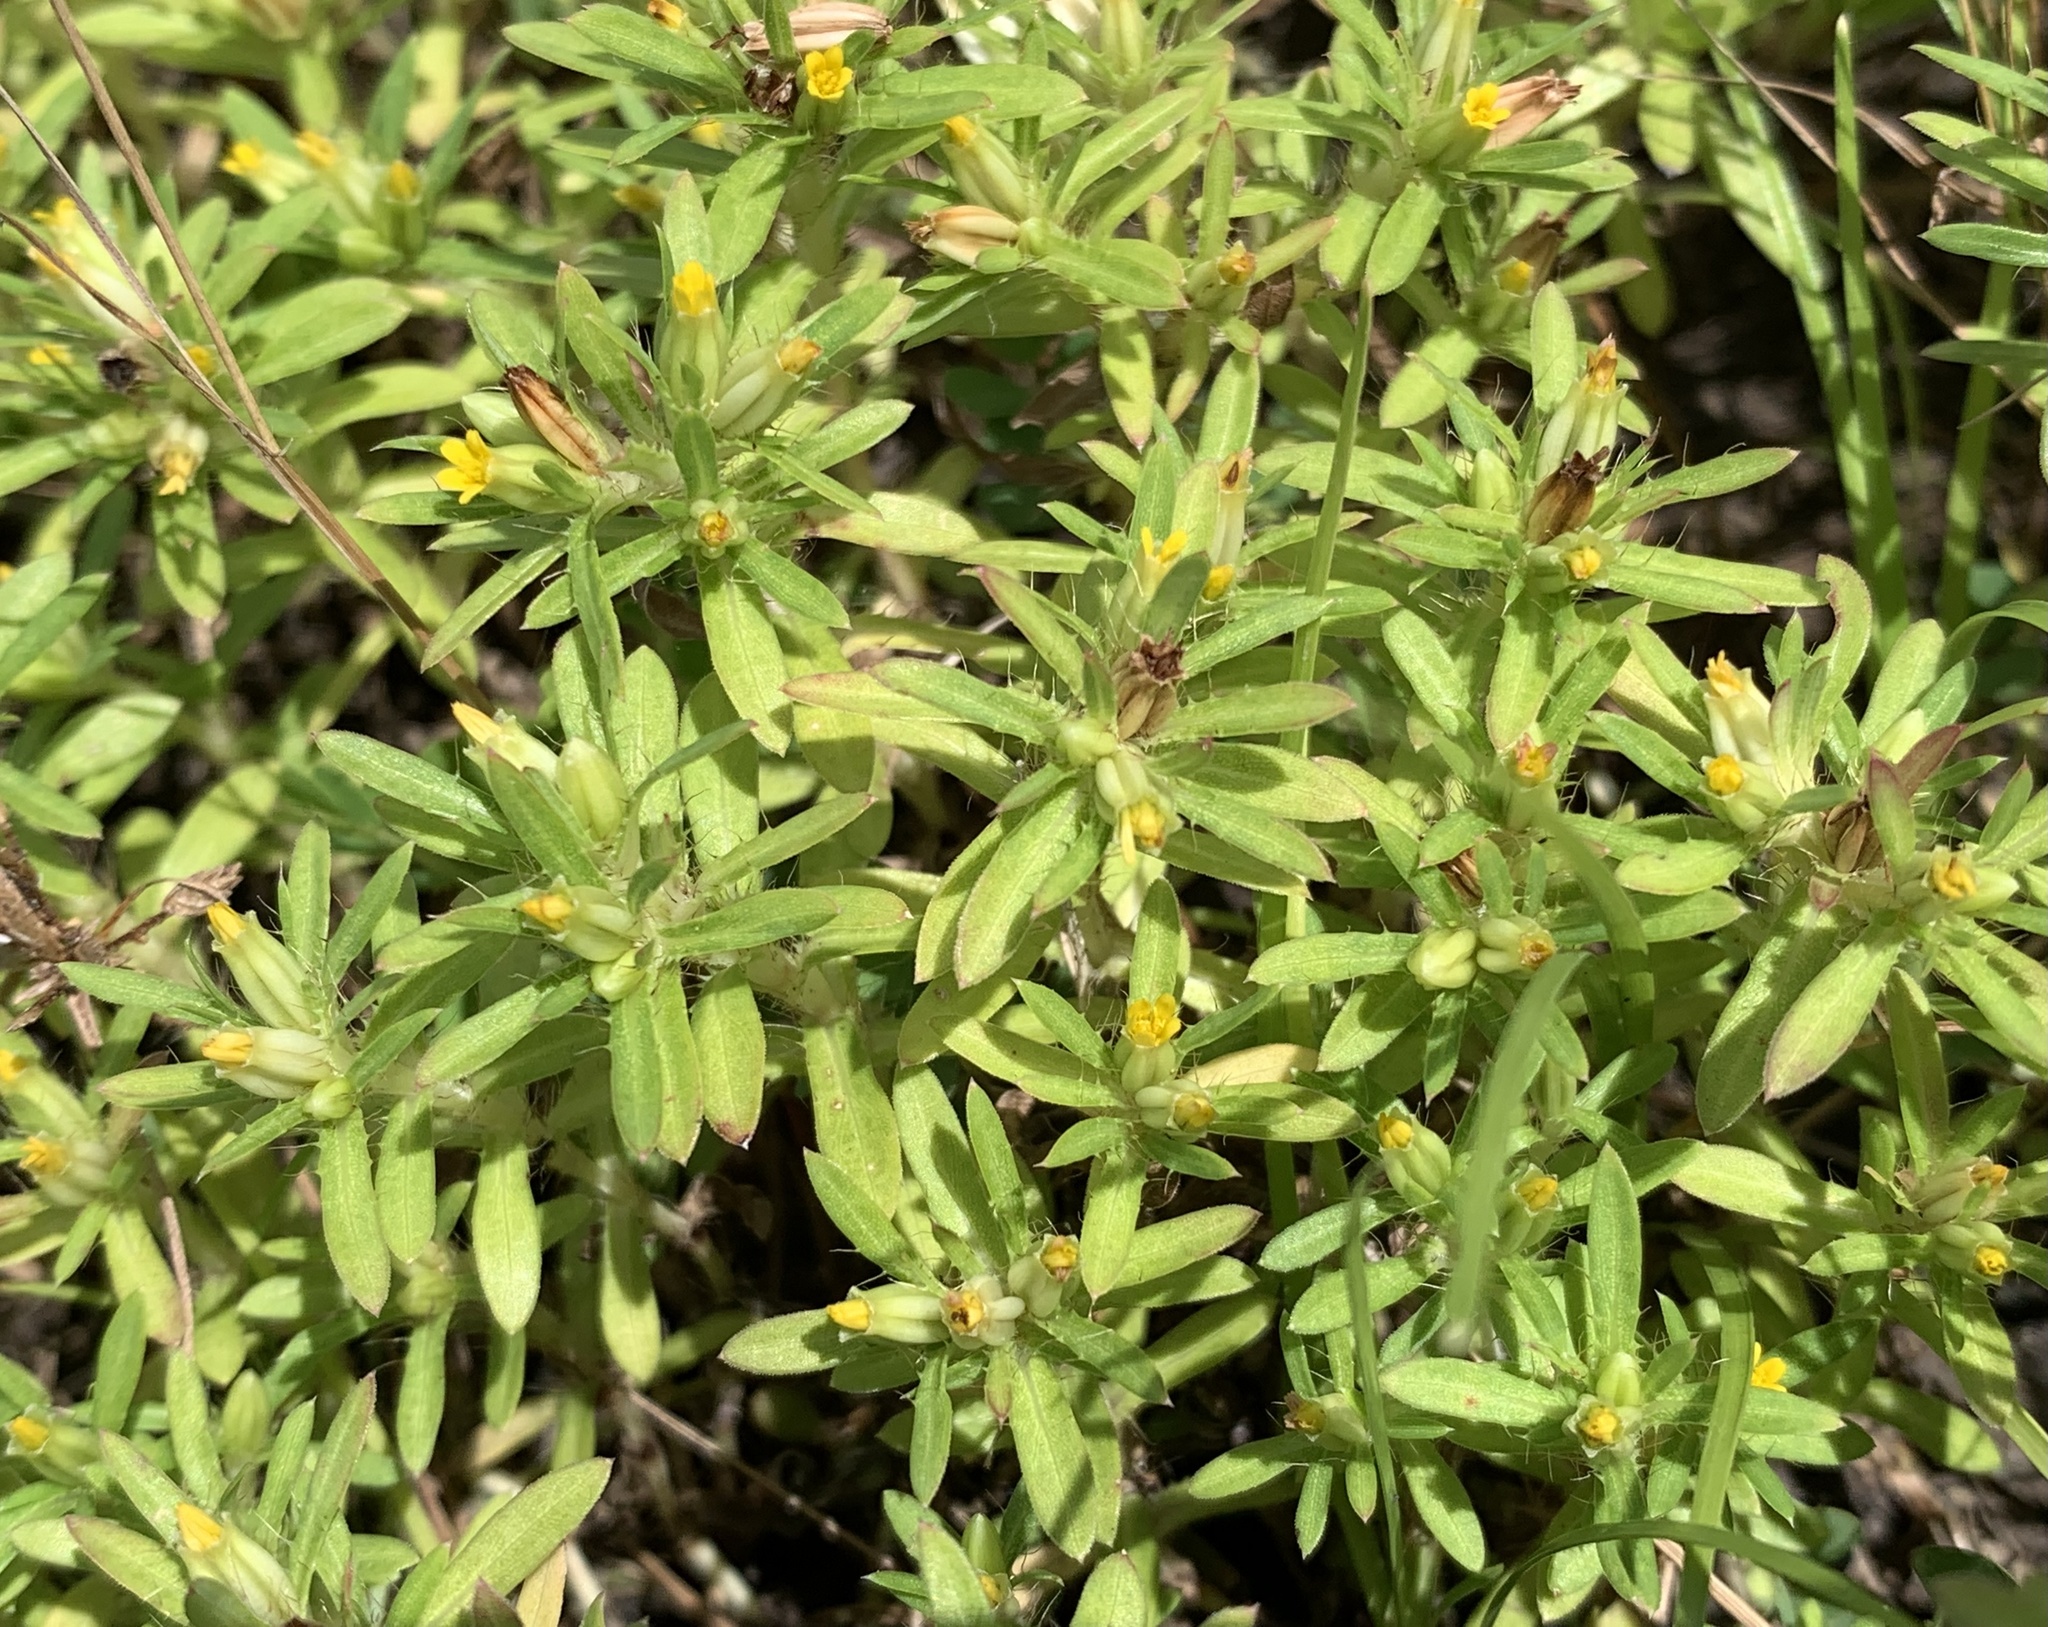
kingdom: Plantae
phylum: Tracheophyta
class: Magnoliopsida
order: Asterales
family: Asteraceae
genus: Pectis
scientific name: Pectis prostrata
